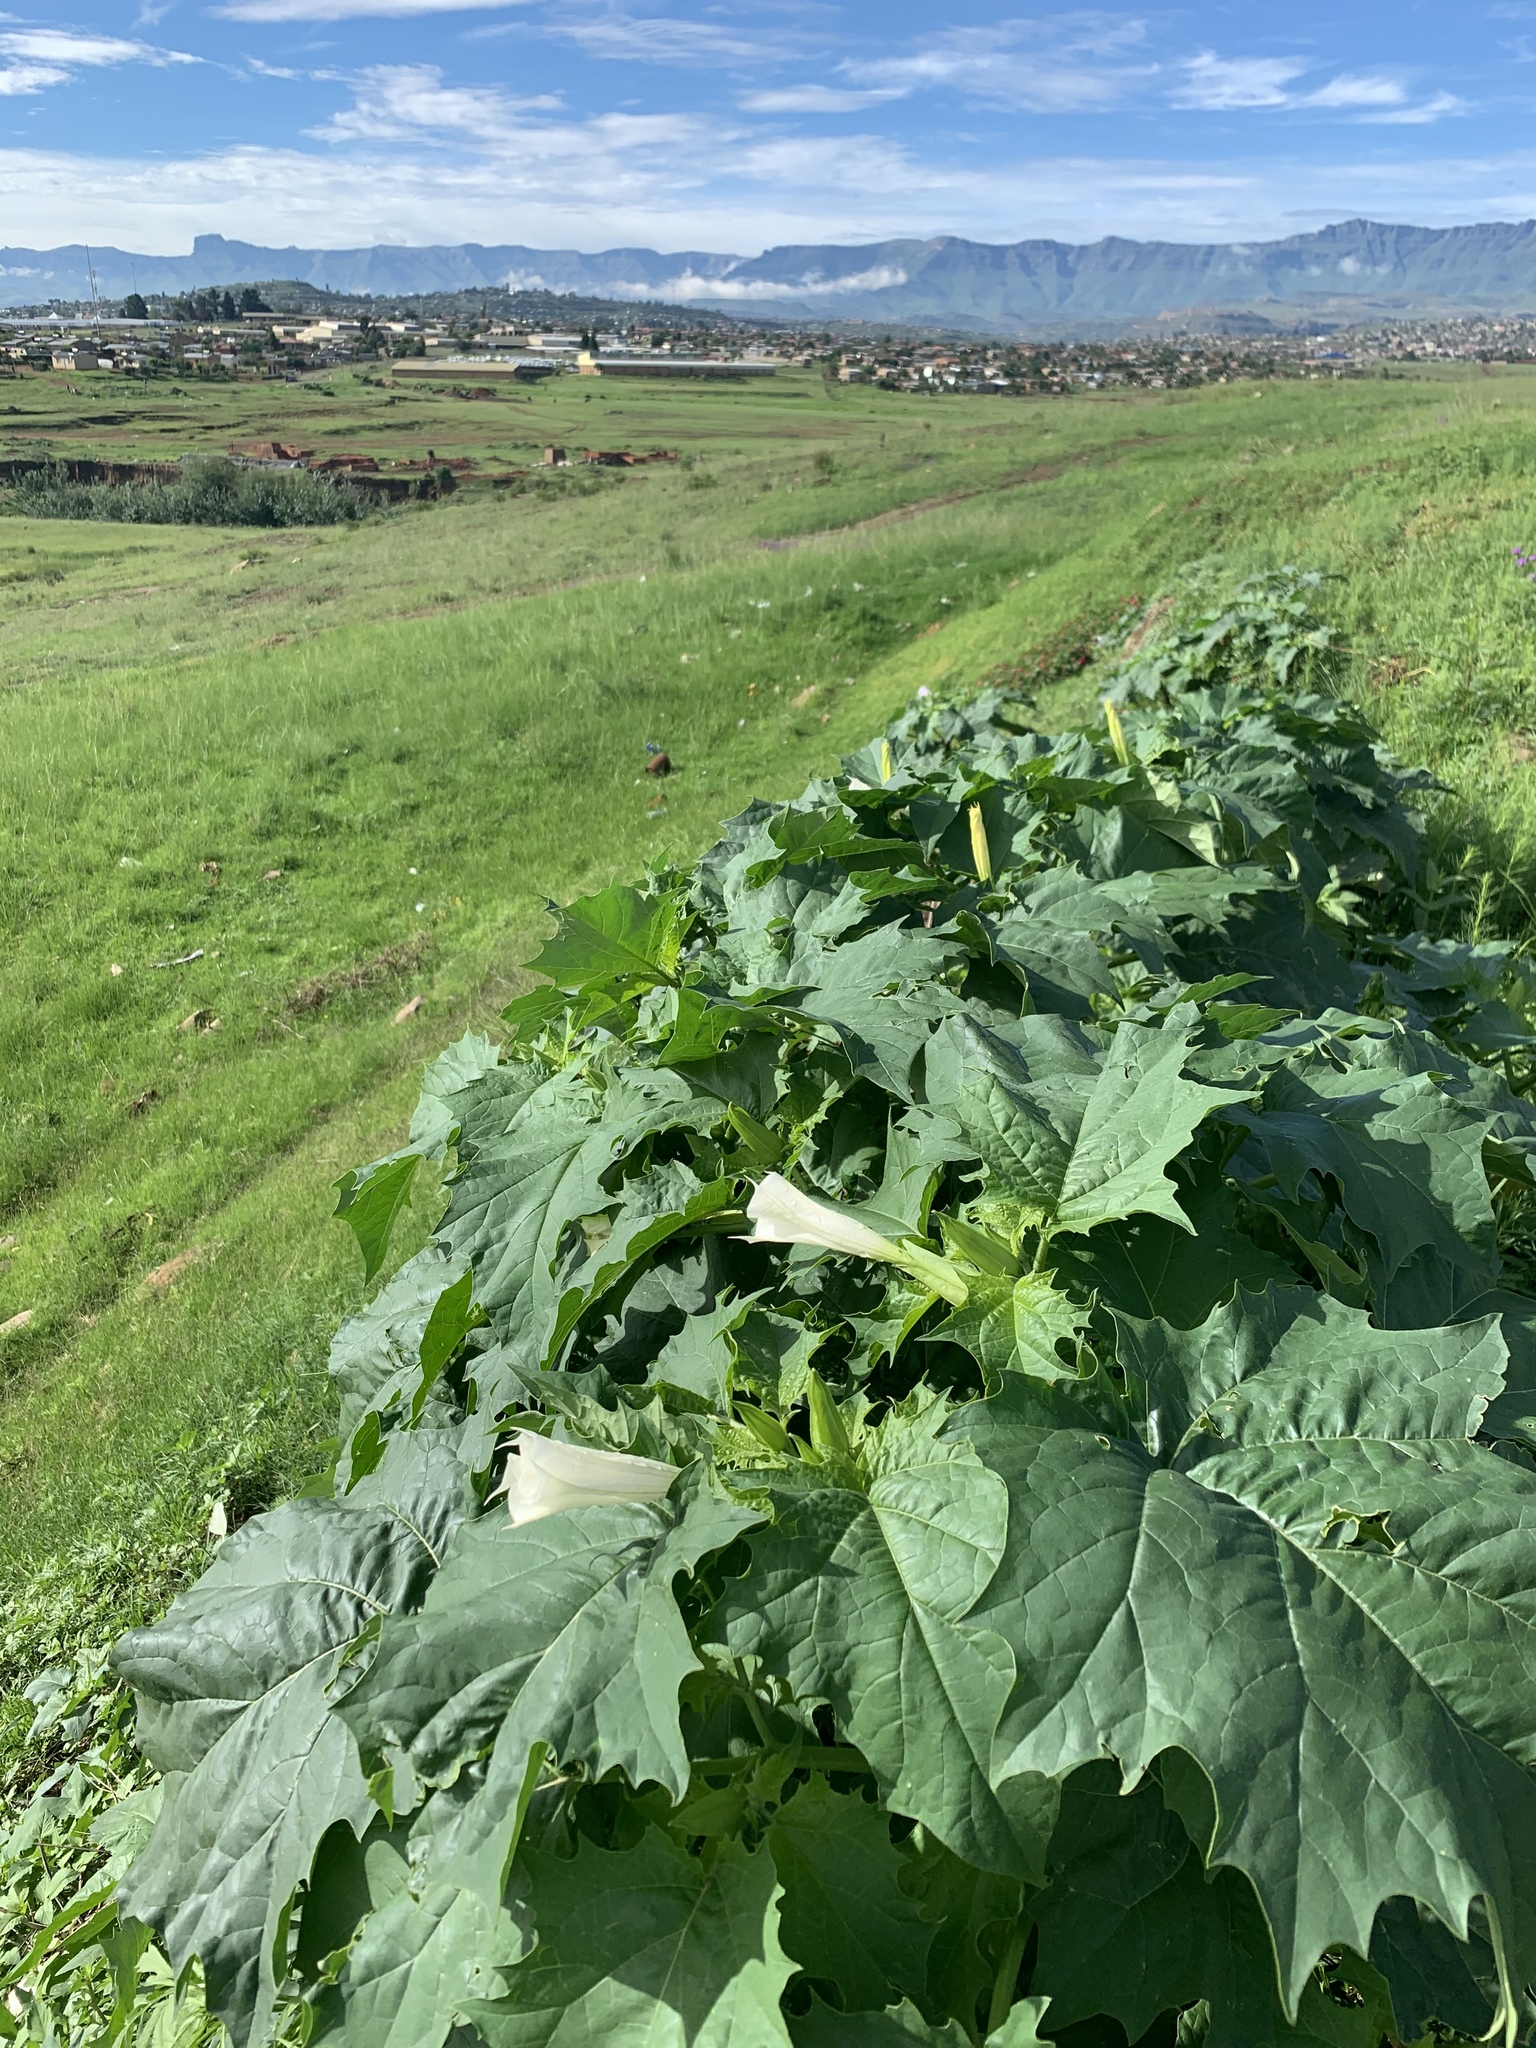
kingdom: Plantae
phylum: Tracheophyta
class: Magnoliopsida
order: Solanales
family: Solanaceae
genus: Datura
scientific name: Datura stramonium
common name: Thorn-apple
